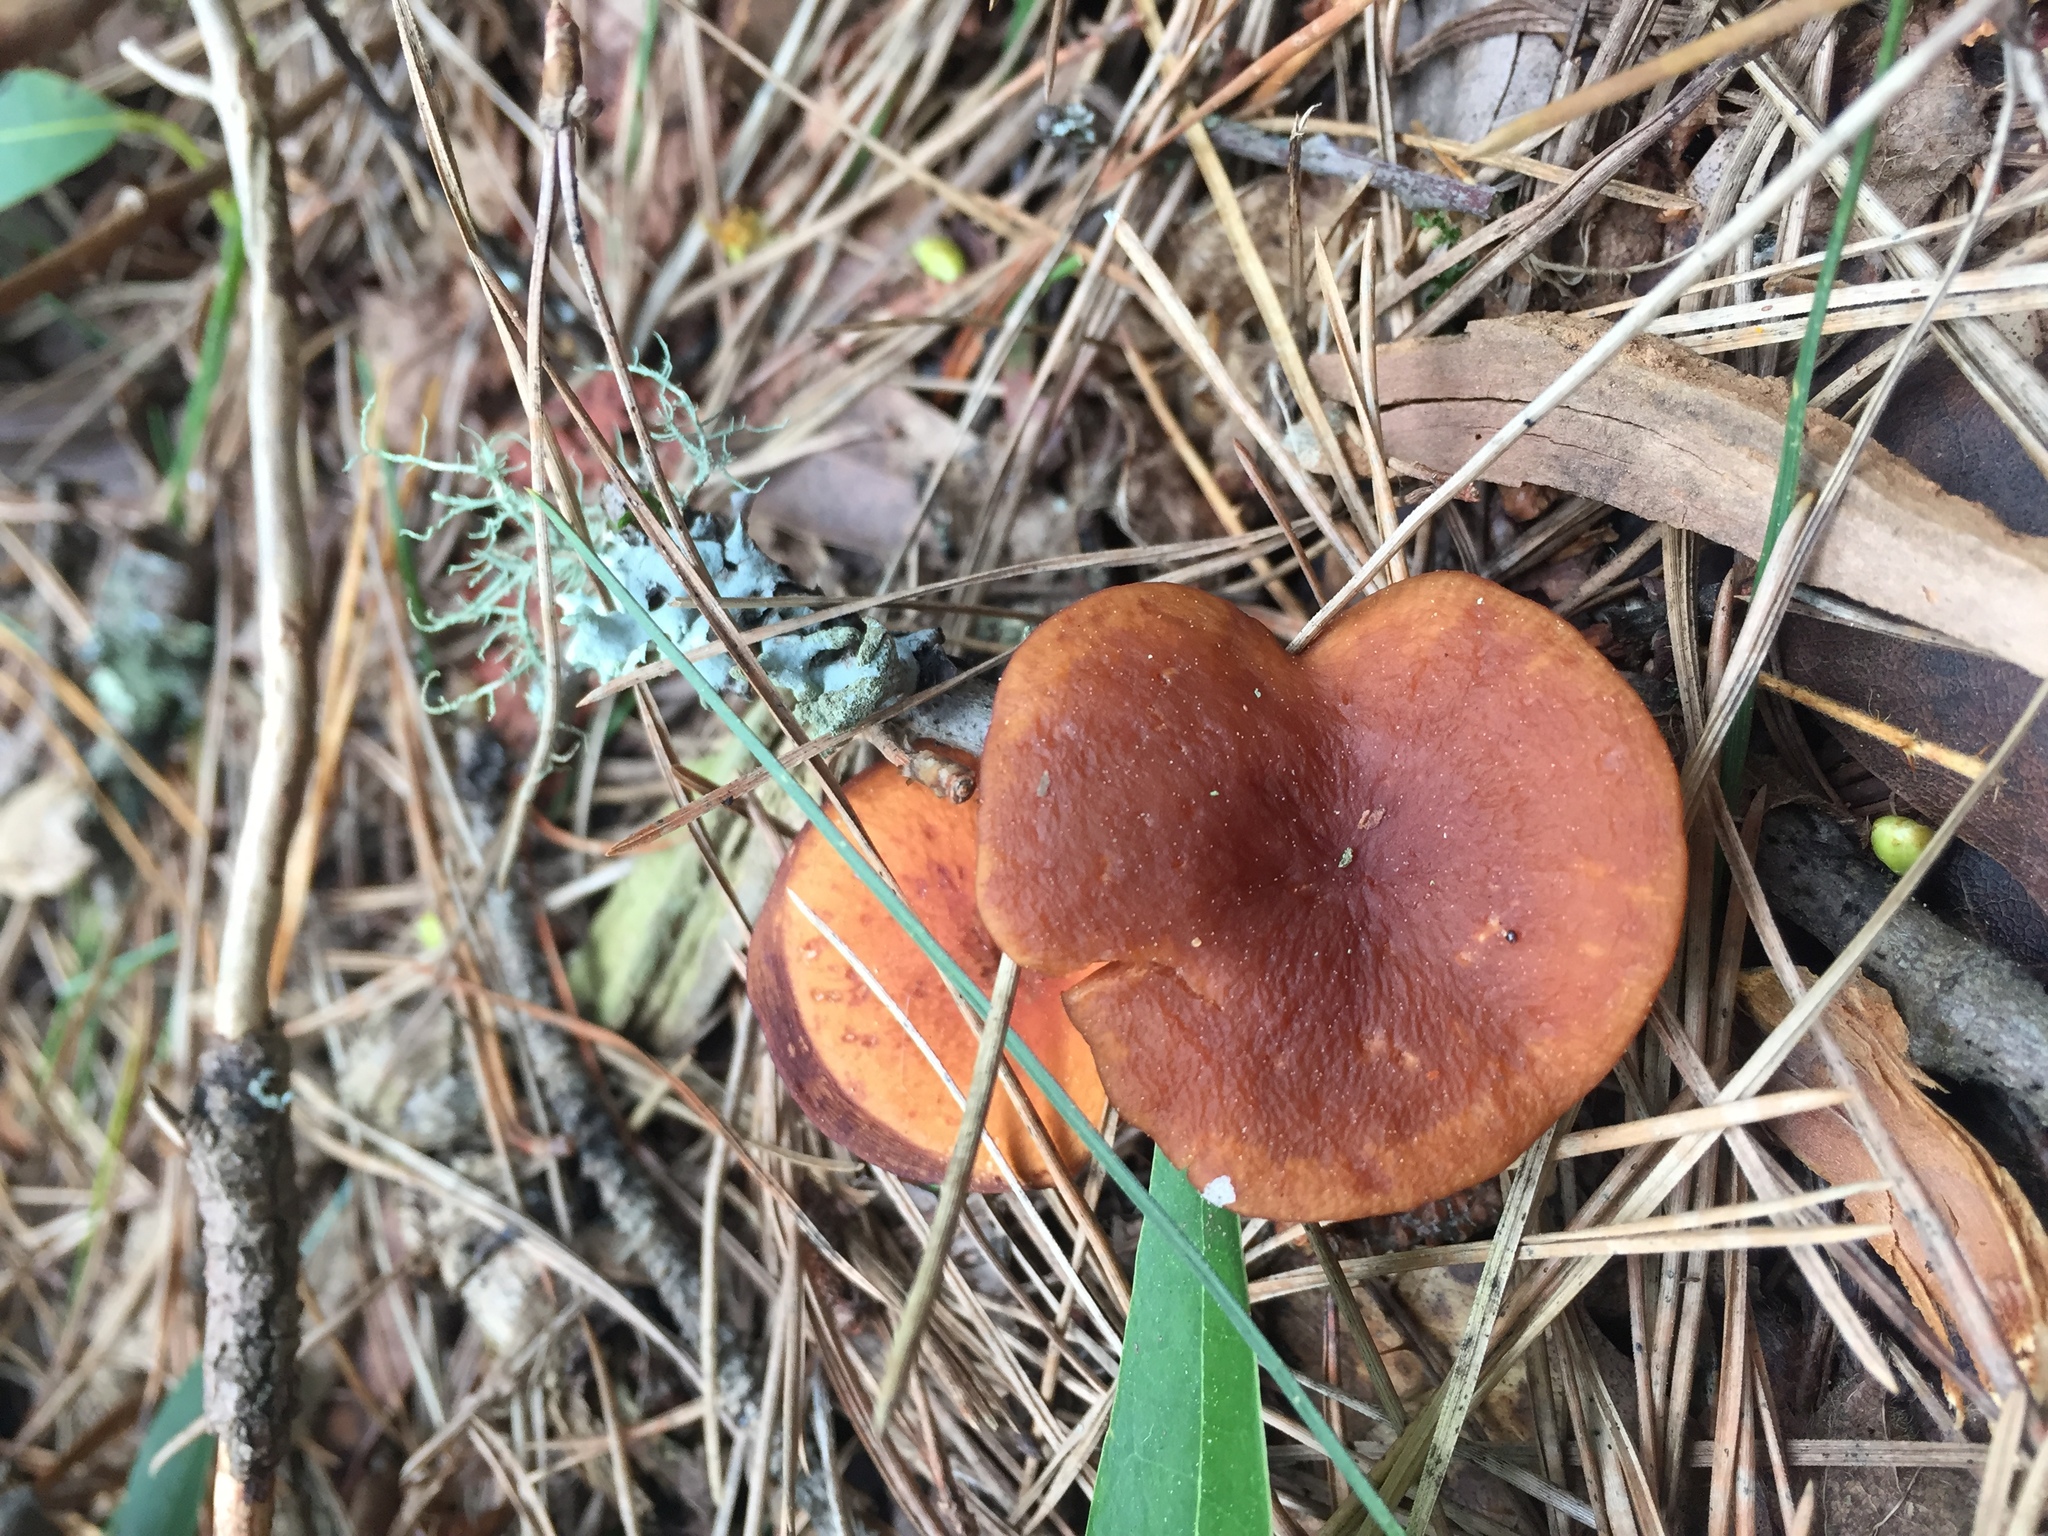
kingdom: Fungi
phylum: Basidiomycota
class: Agaricomycetes
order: Russulales
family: Russulaceae
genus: Lactarius
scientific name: Lactarius rufulus
